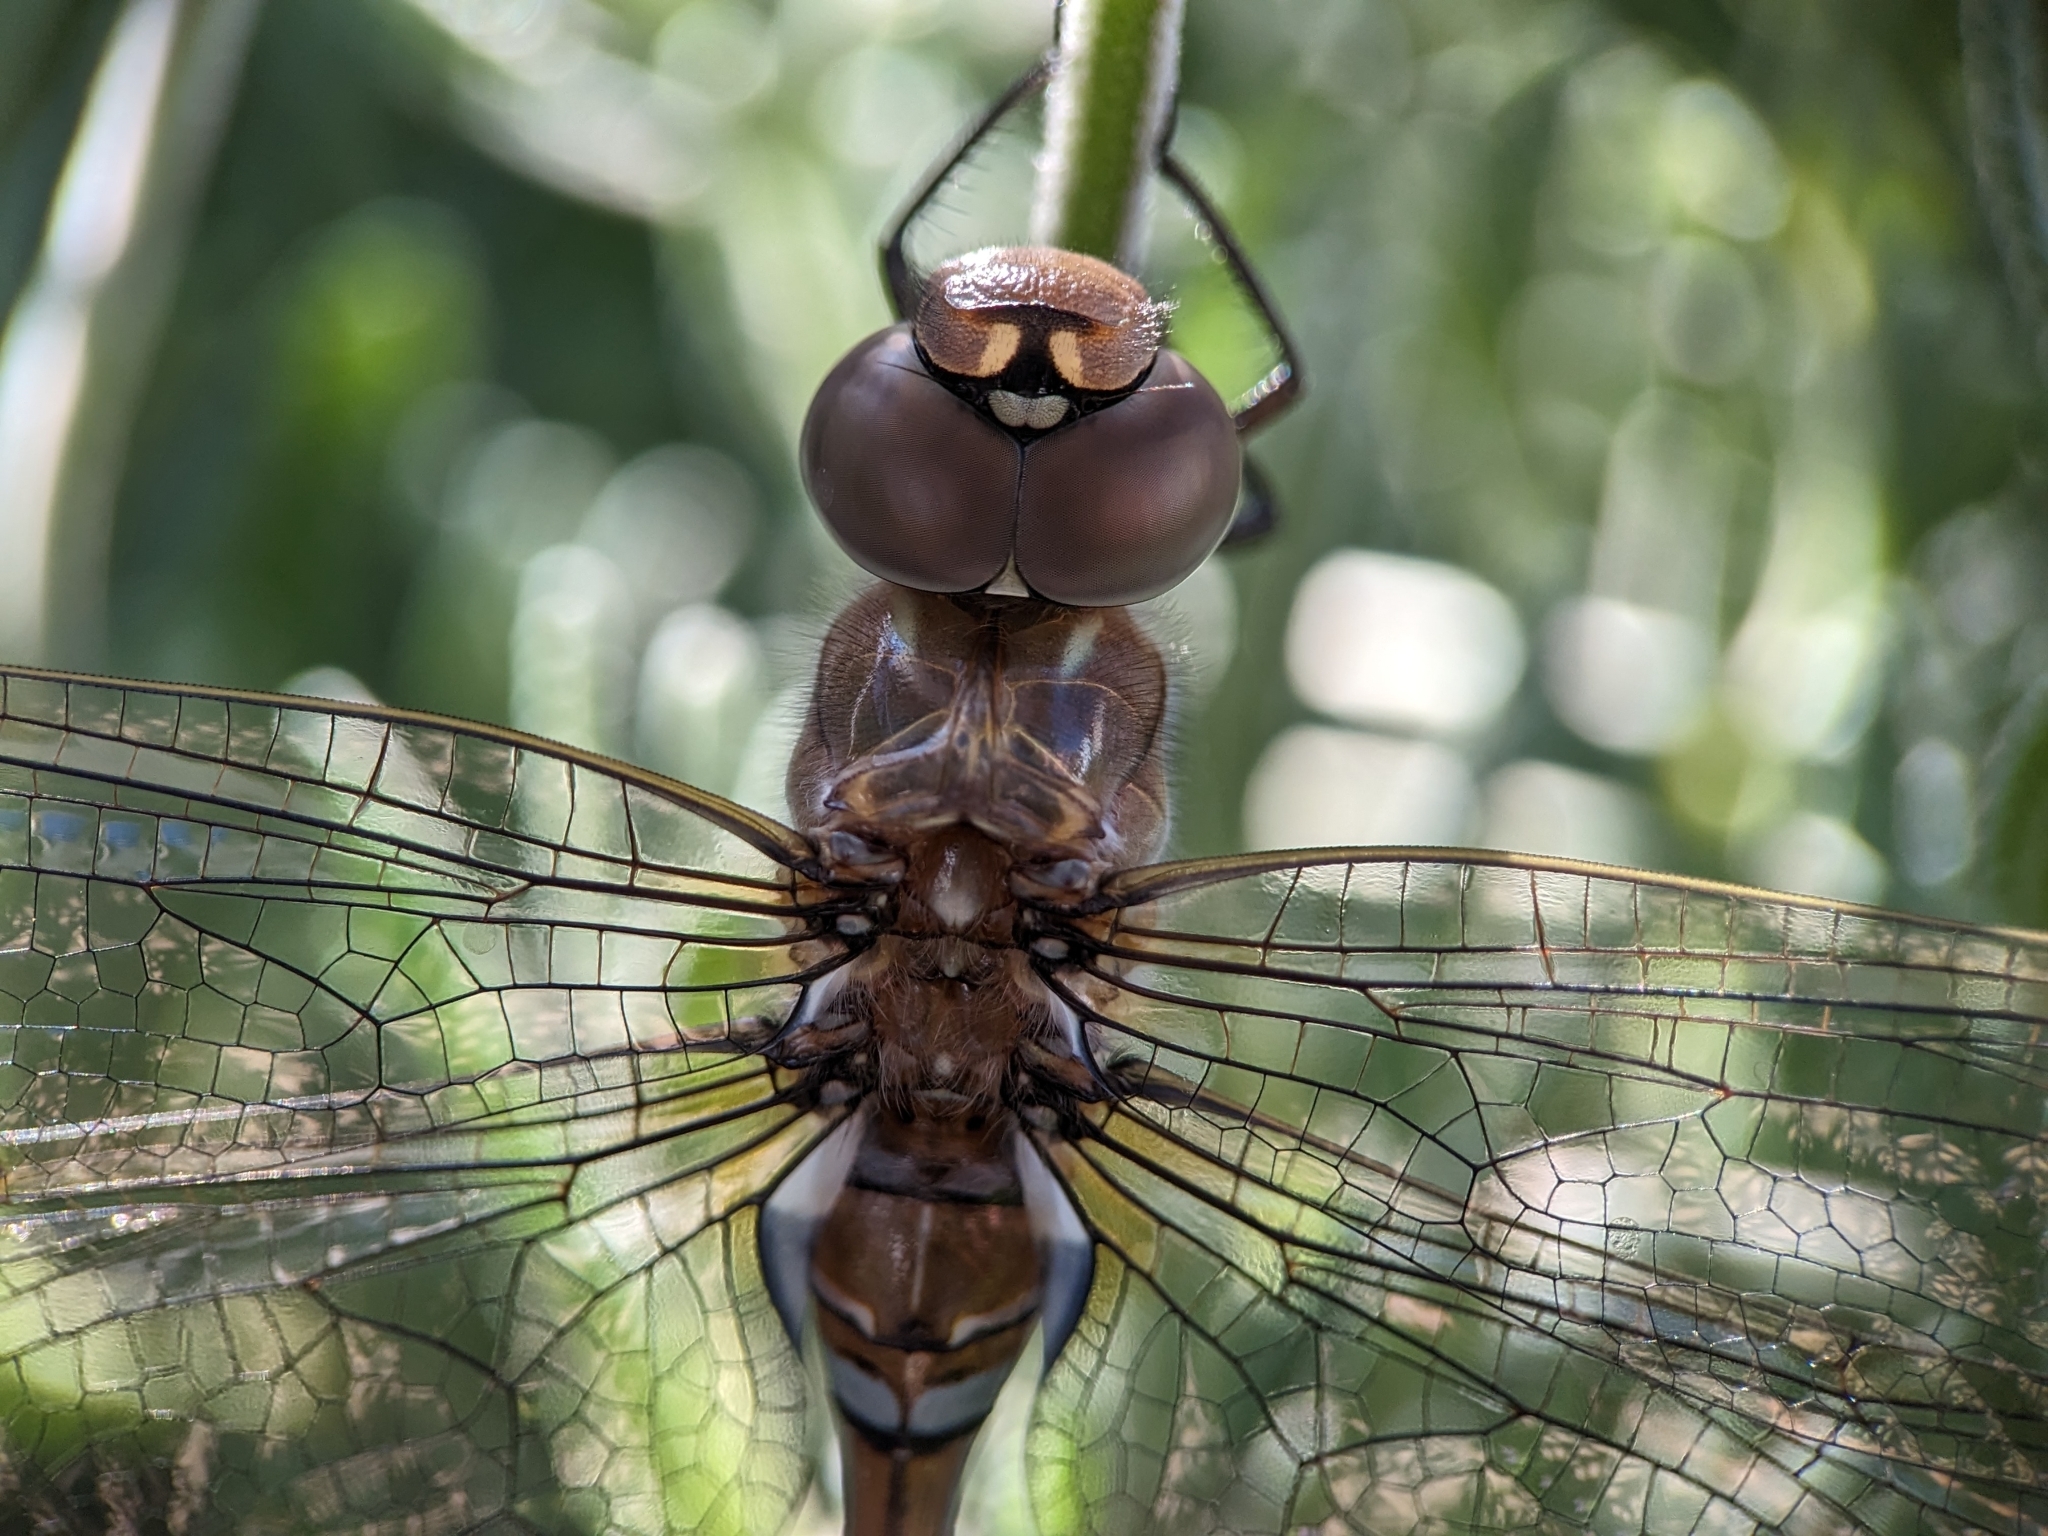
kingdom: Animalia
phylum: Arthropoda
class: Insecta
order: Odonata
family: Aeshnidae
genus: Rhionaeschna
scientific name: Rhionaeschna multicolor
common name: Blue-eyed darner
